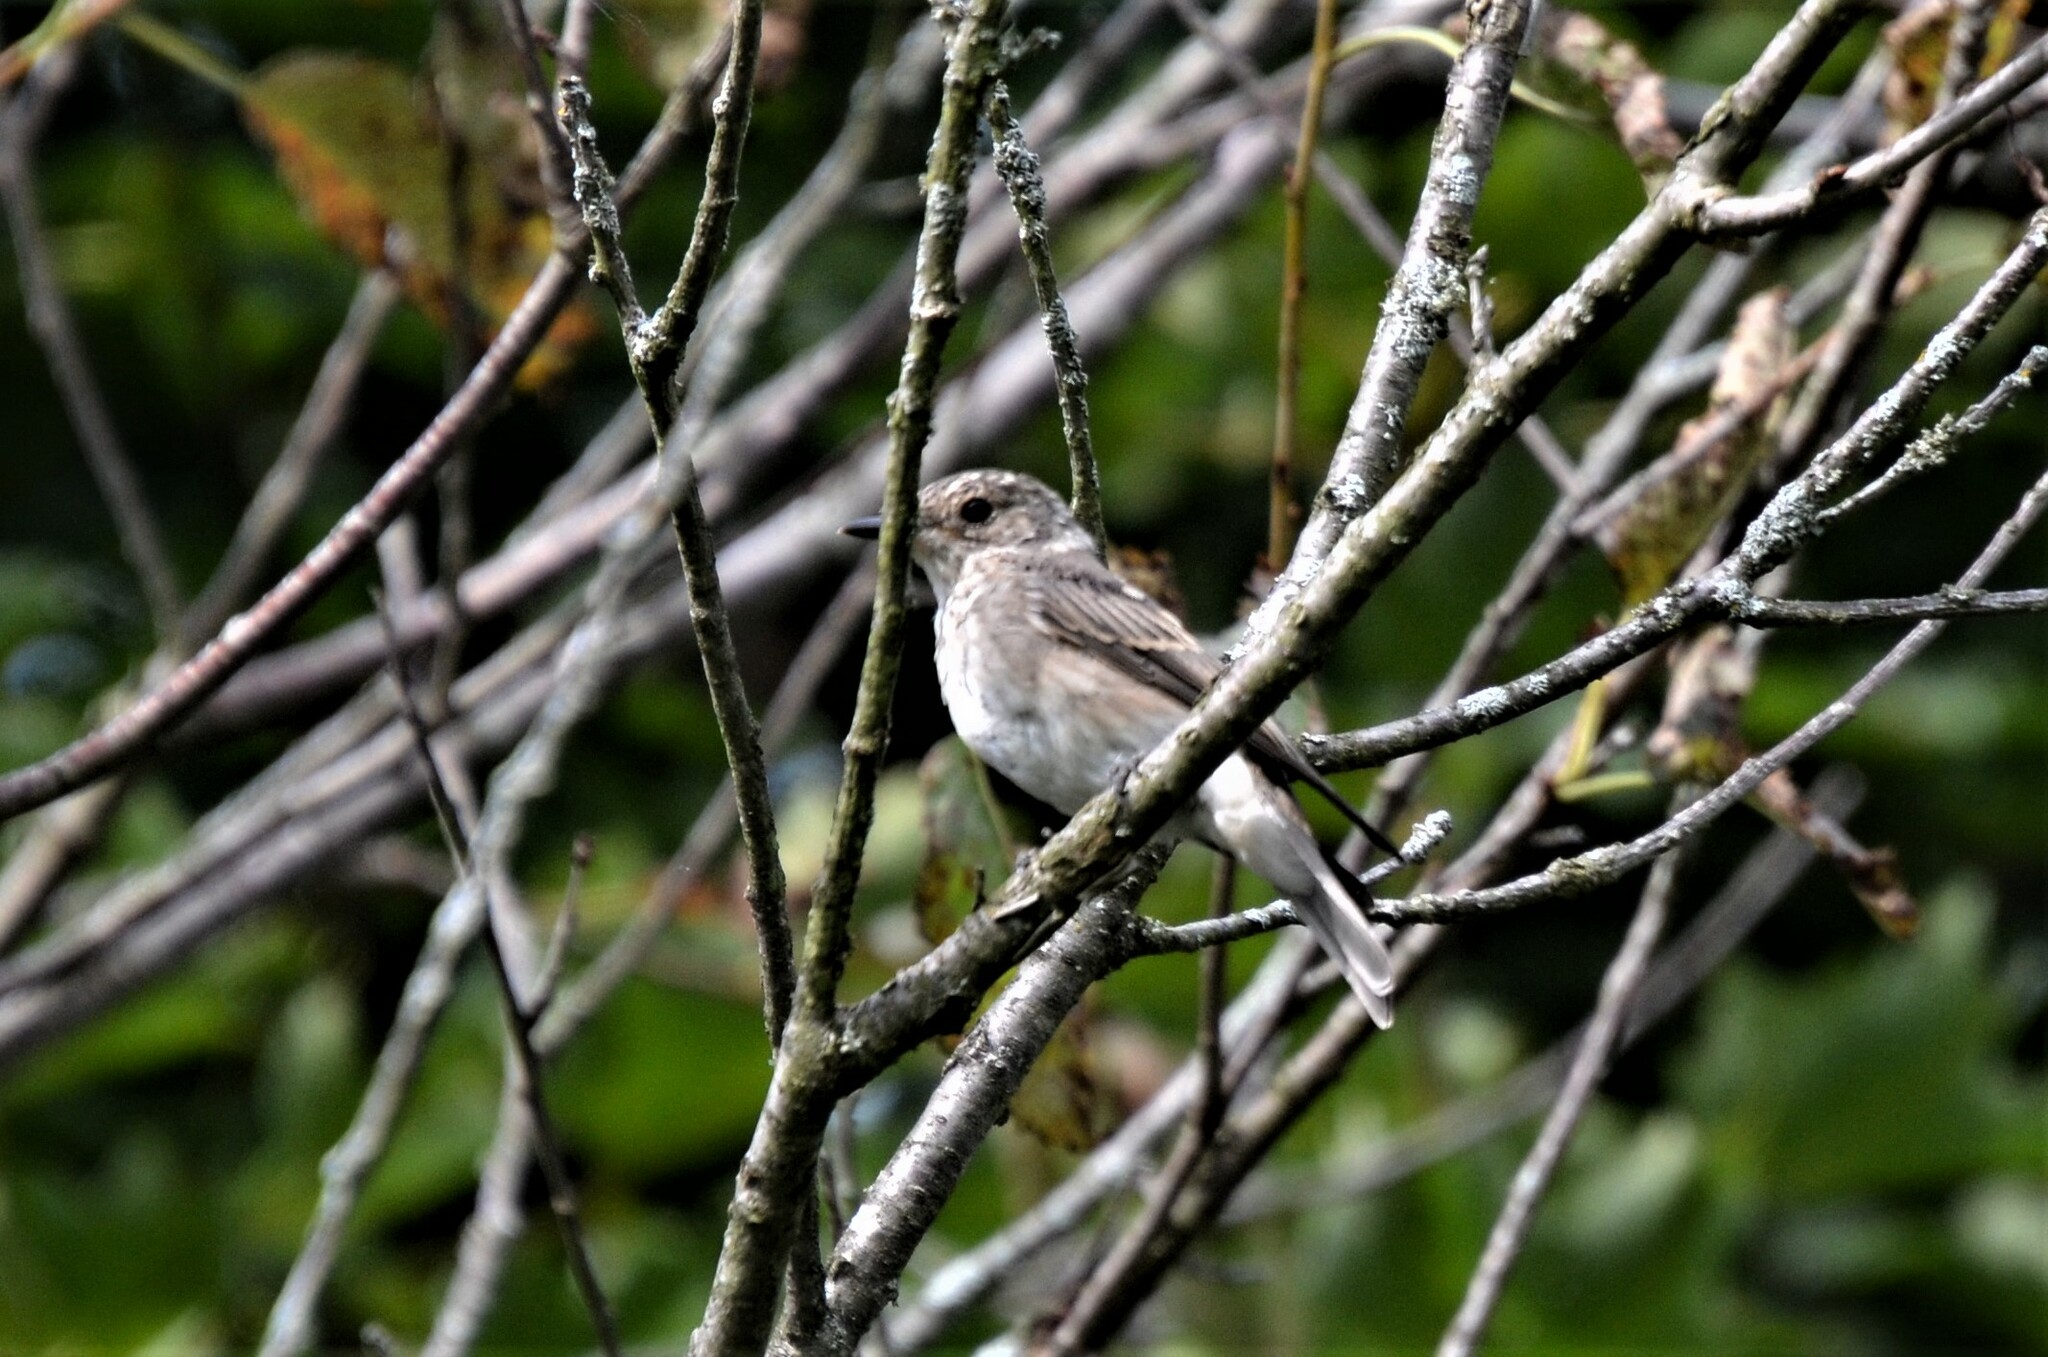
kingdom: Animalia
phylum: Chordata
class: Aves
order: Passeriformes
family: Muscicapidae
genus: Muscicapa
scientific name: Muscicapa striata
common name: Spotted flycatcher
